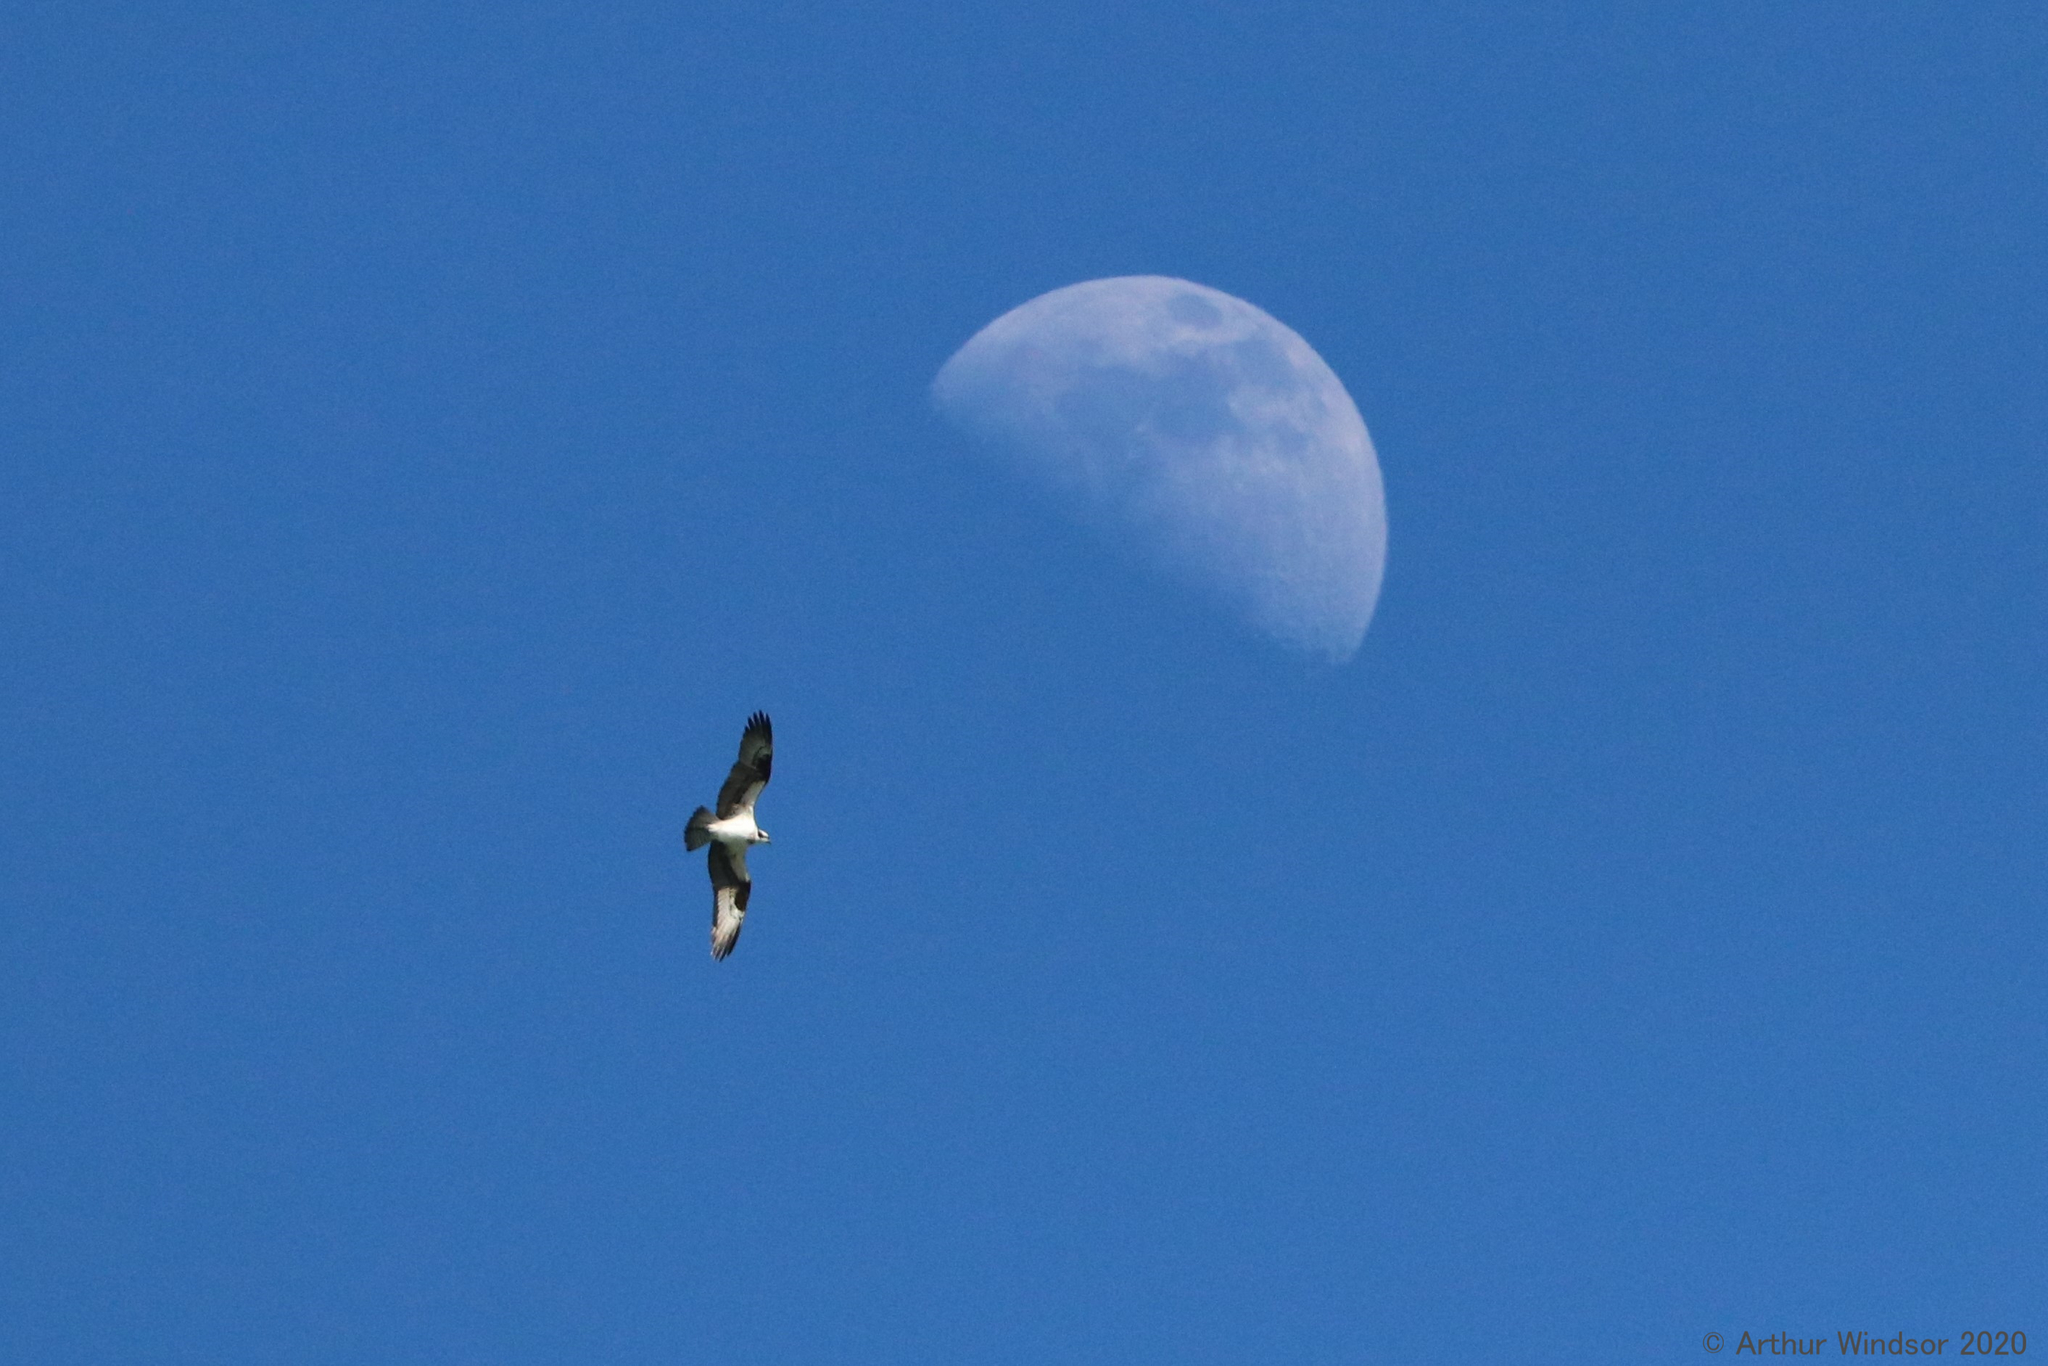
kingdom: Animalia
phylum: Chordata
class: Aves
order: Accipitriformes
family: Pandionidae
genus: Pandion
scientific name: Pandion haliaetus
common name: Osprey
